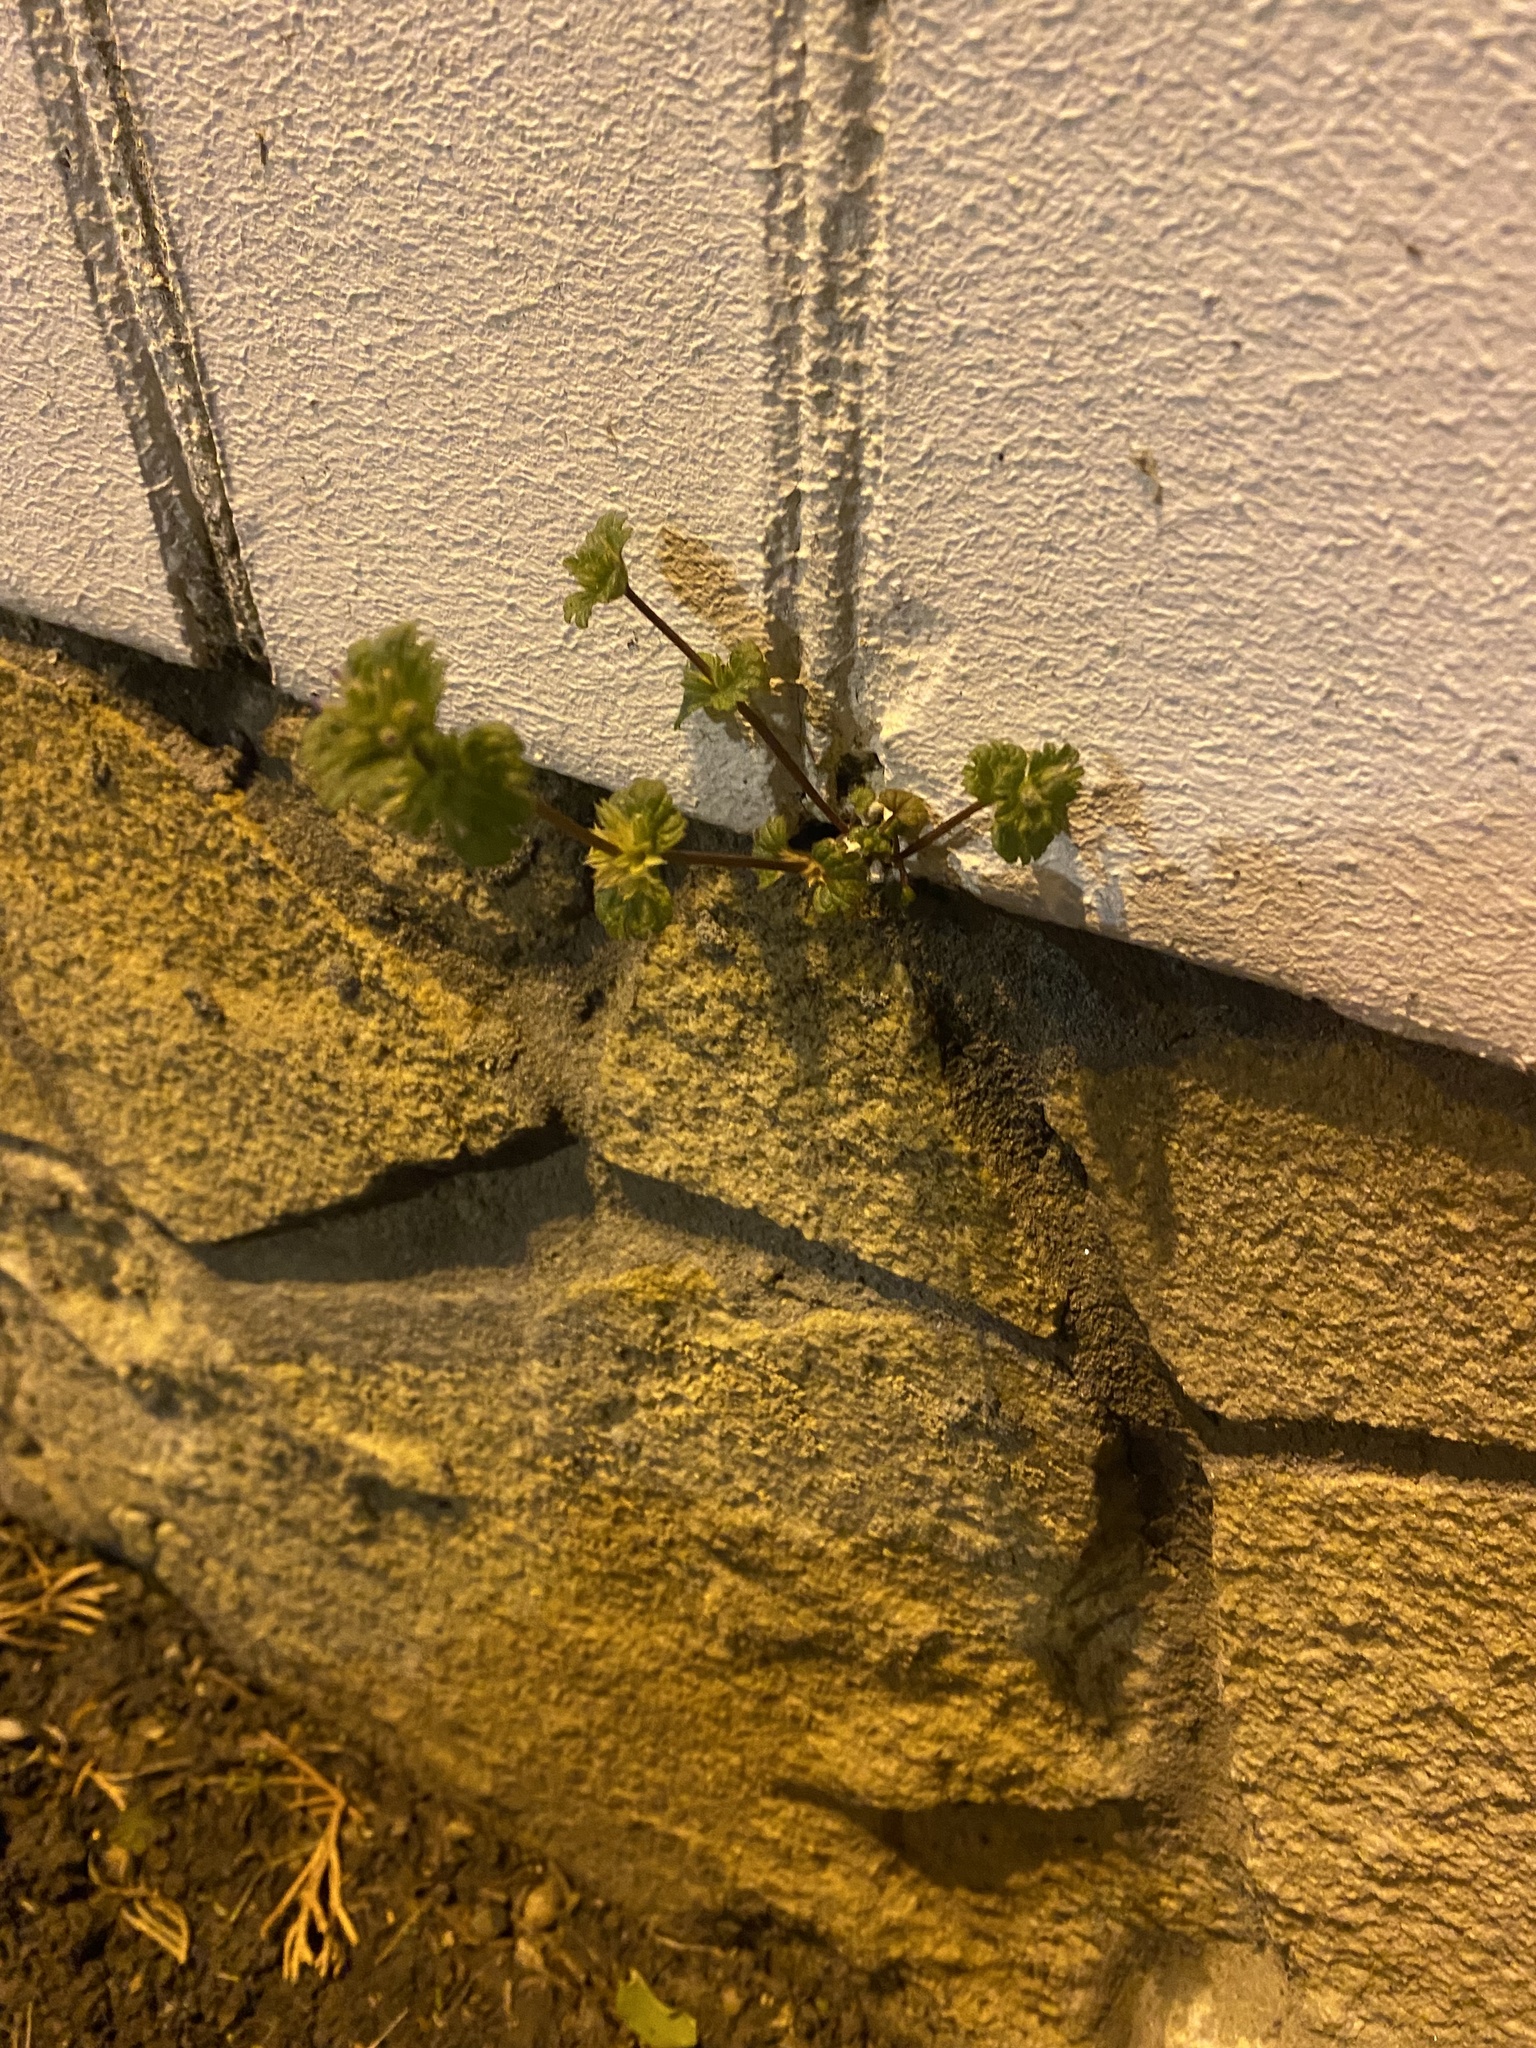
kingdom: Plantae
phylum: Tracheophyta
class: Magnoliopsida
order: Lamiales
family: Lamiaceae
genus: Lamium
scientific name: Lamium amplexicaule
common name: Henbit dead-nettle
